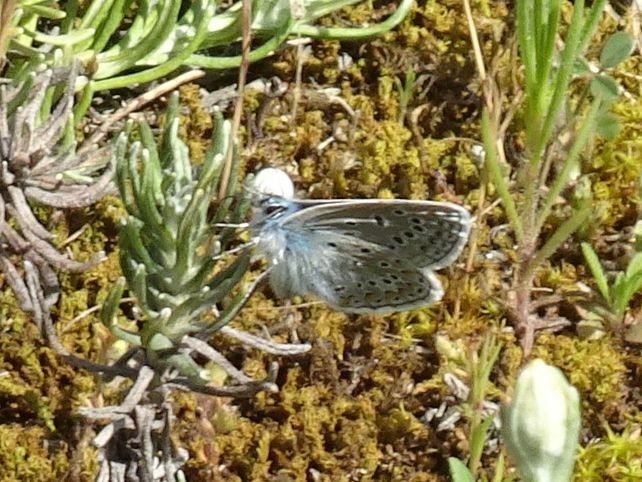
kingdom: Animalia
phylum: Arthropoda
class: Insecta
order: Lepidoptera
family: Lycaenidae
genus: Polyommatus
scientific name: Polyommatus icarus
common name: Common blue
